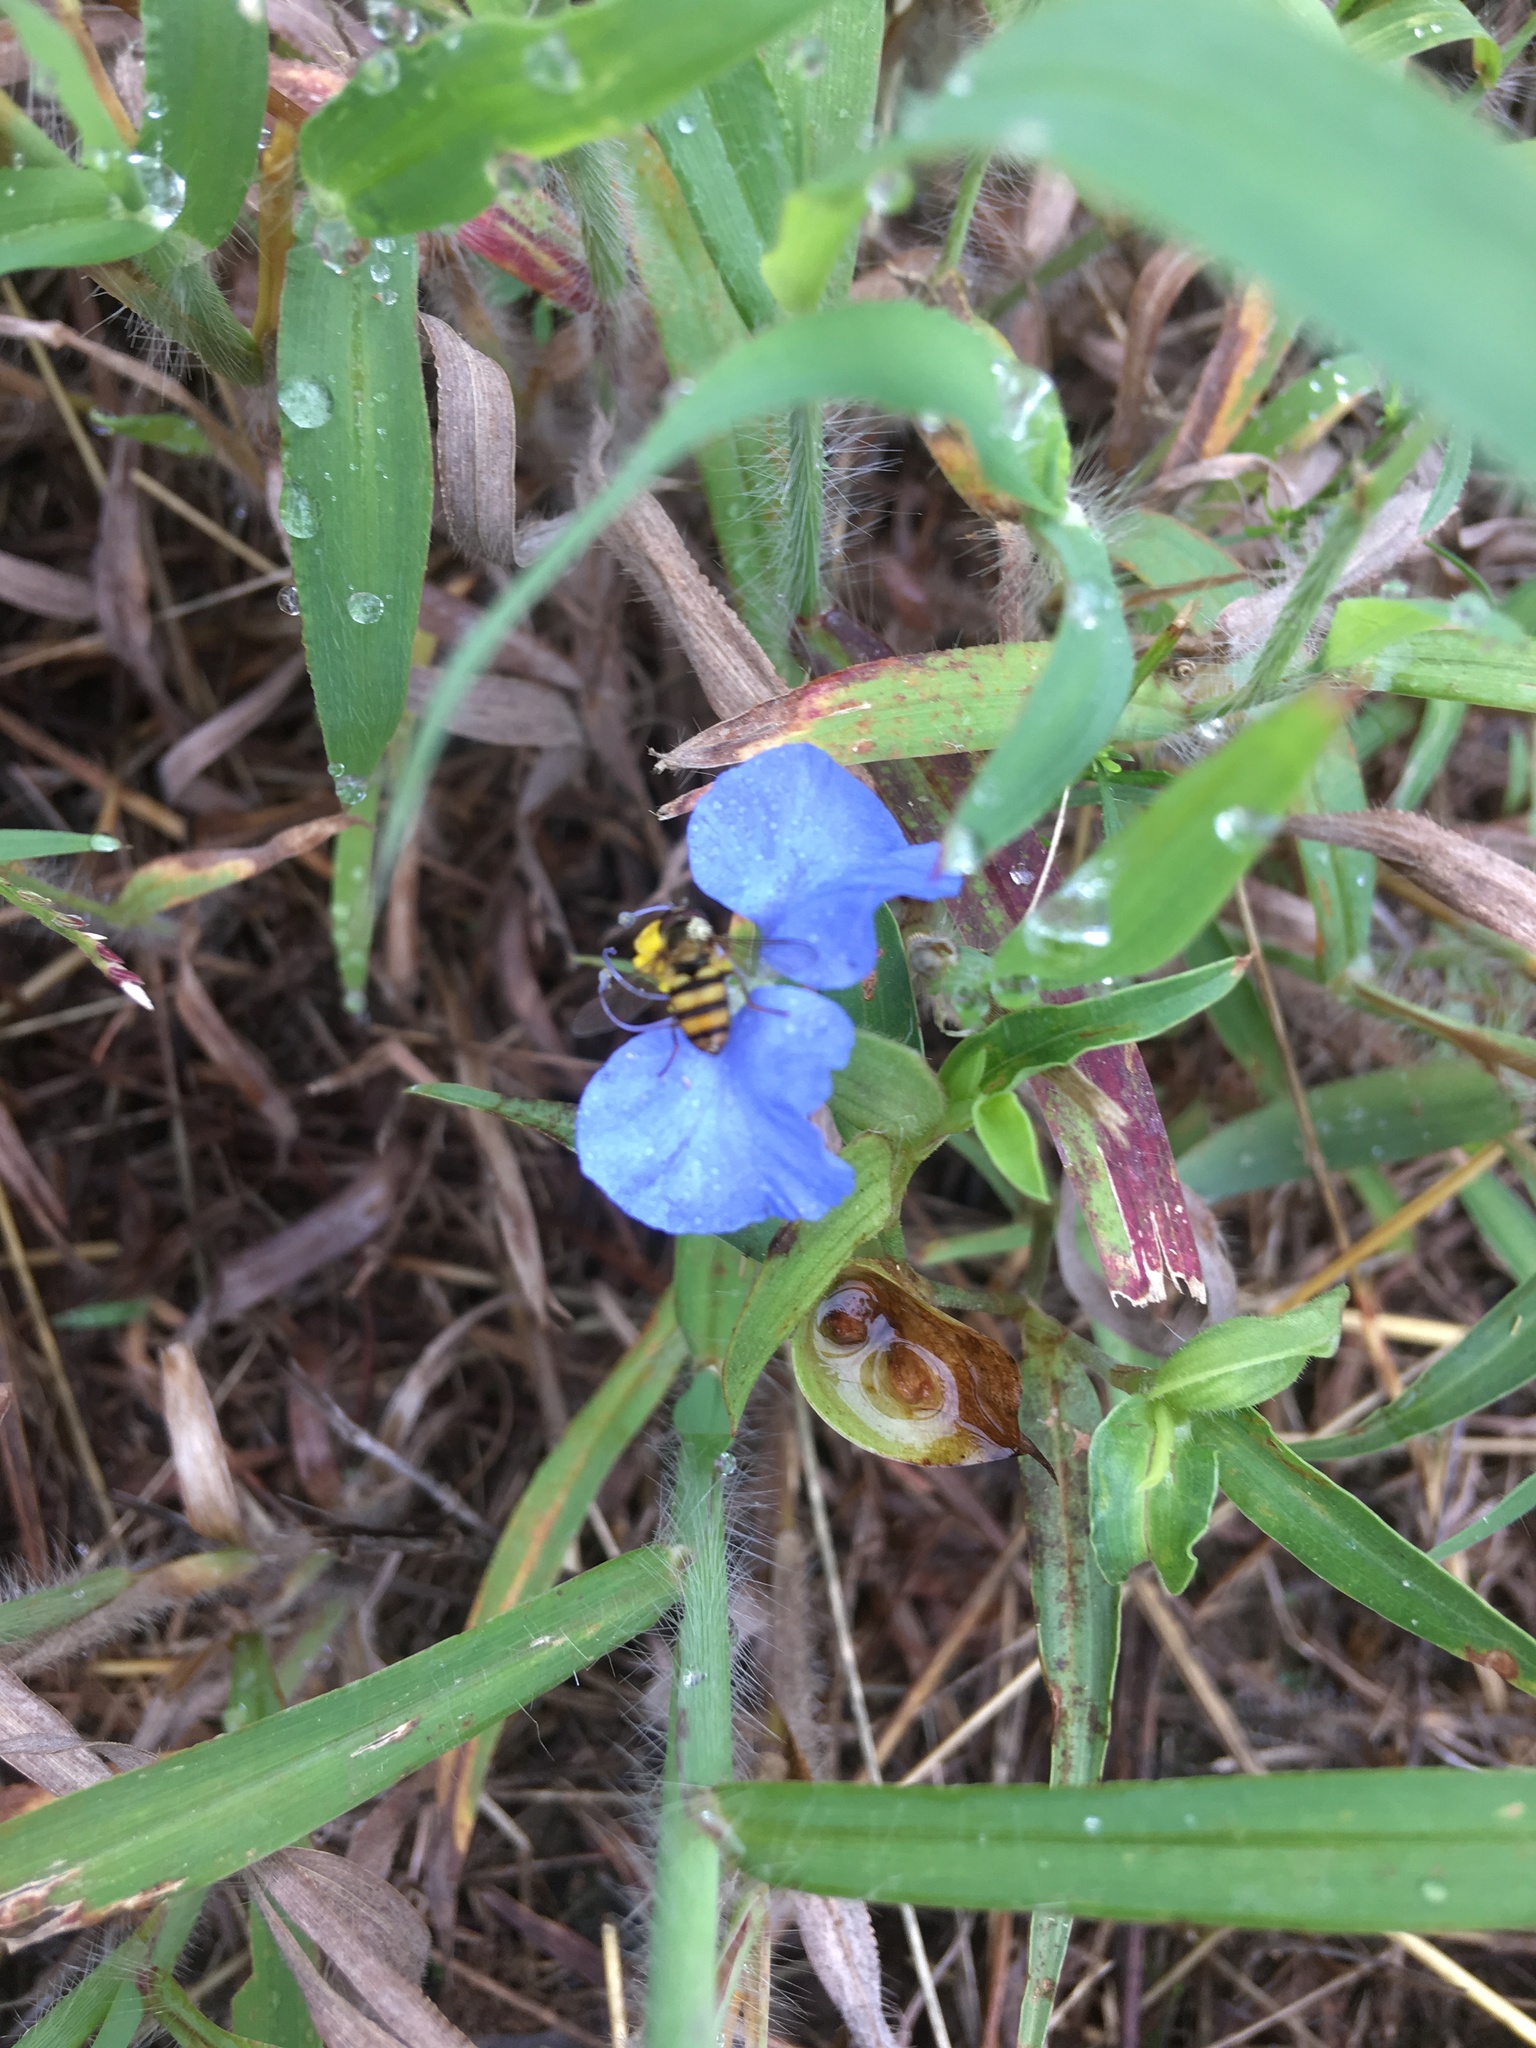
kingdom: Animalia
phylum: Arthropoda
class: Insecta
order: Diptera
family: Syrphidae
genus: Eupeodes
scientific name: Eupeodes
